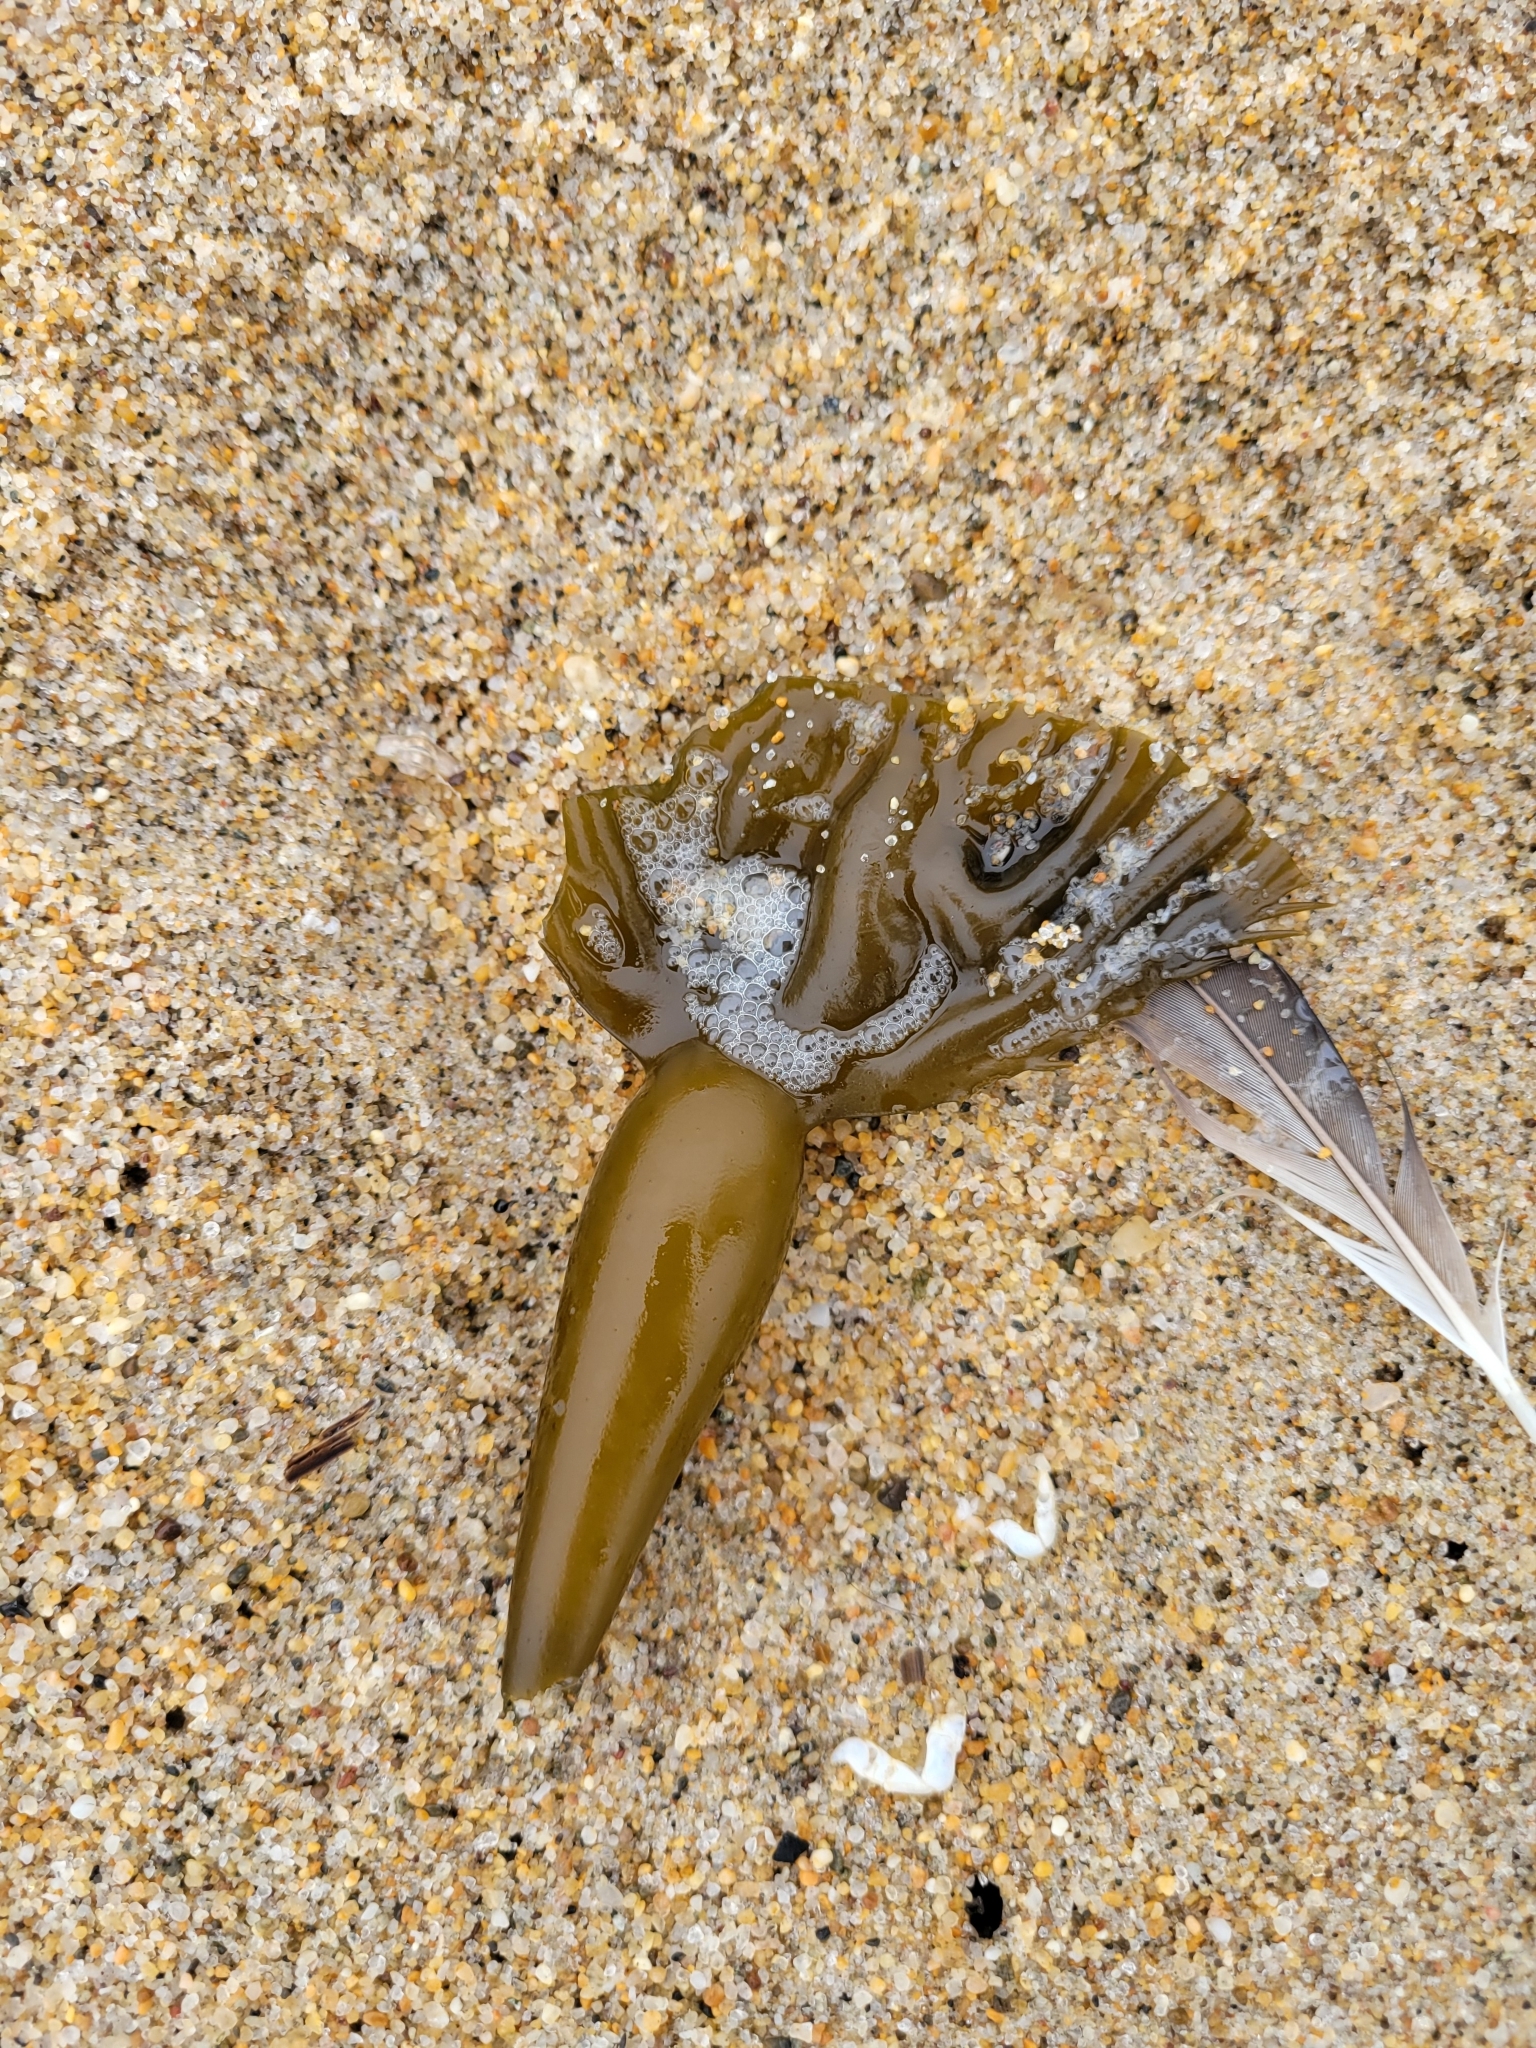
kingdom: Chromista
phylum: Ochrophyta
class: Phaeophyceae
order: Laminariales
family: Laminariaceae
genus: Macrocystis
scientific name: Macrocystis pyrifera
